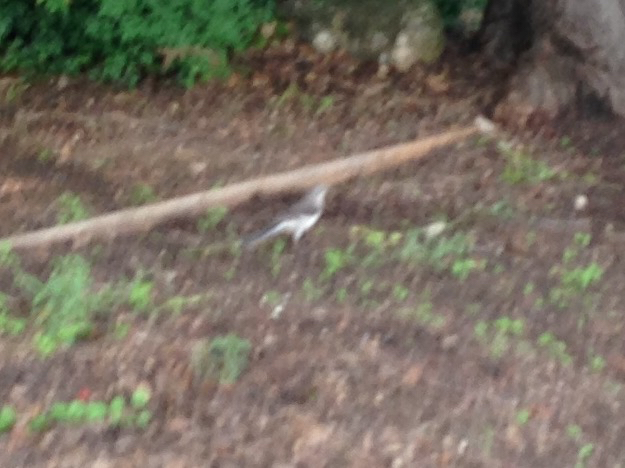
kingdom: Animalia
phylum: Chordata
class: Aves
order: Passeriformes
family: Mimidae
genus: Mimus
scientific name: Mimus polyglottos
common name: Northern mockingbird
